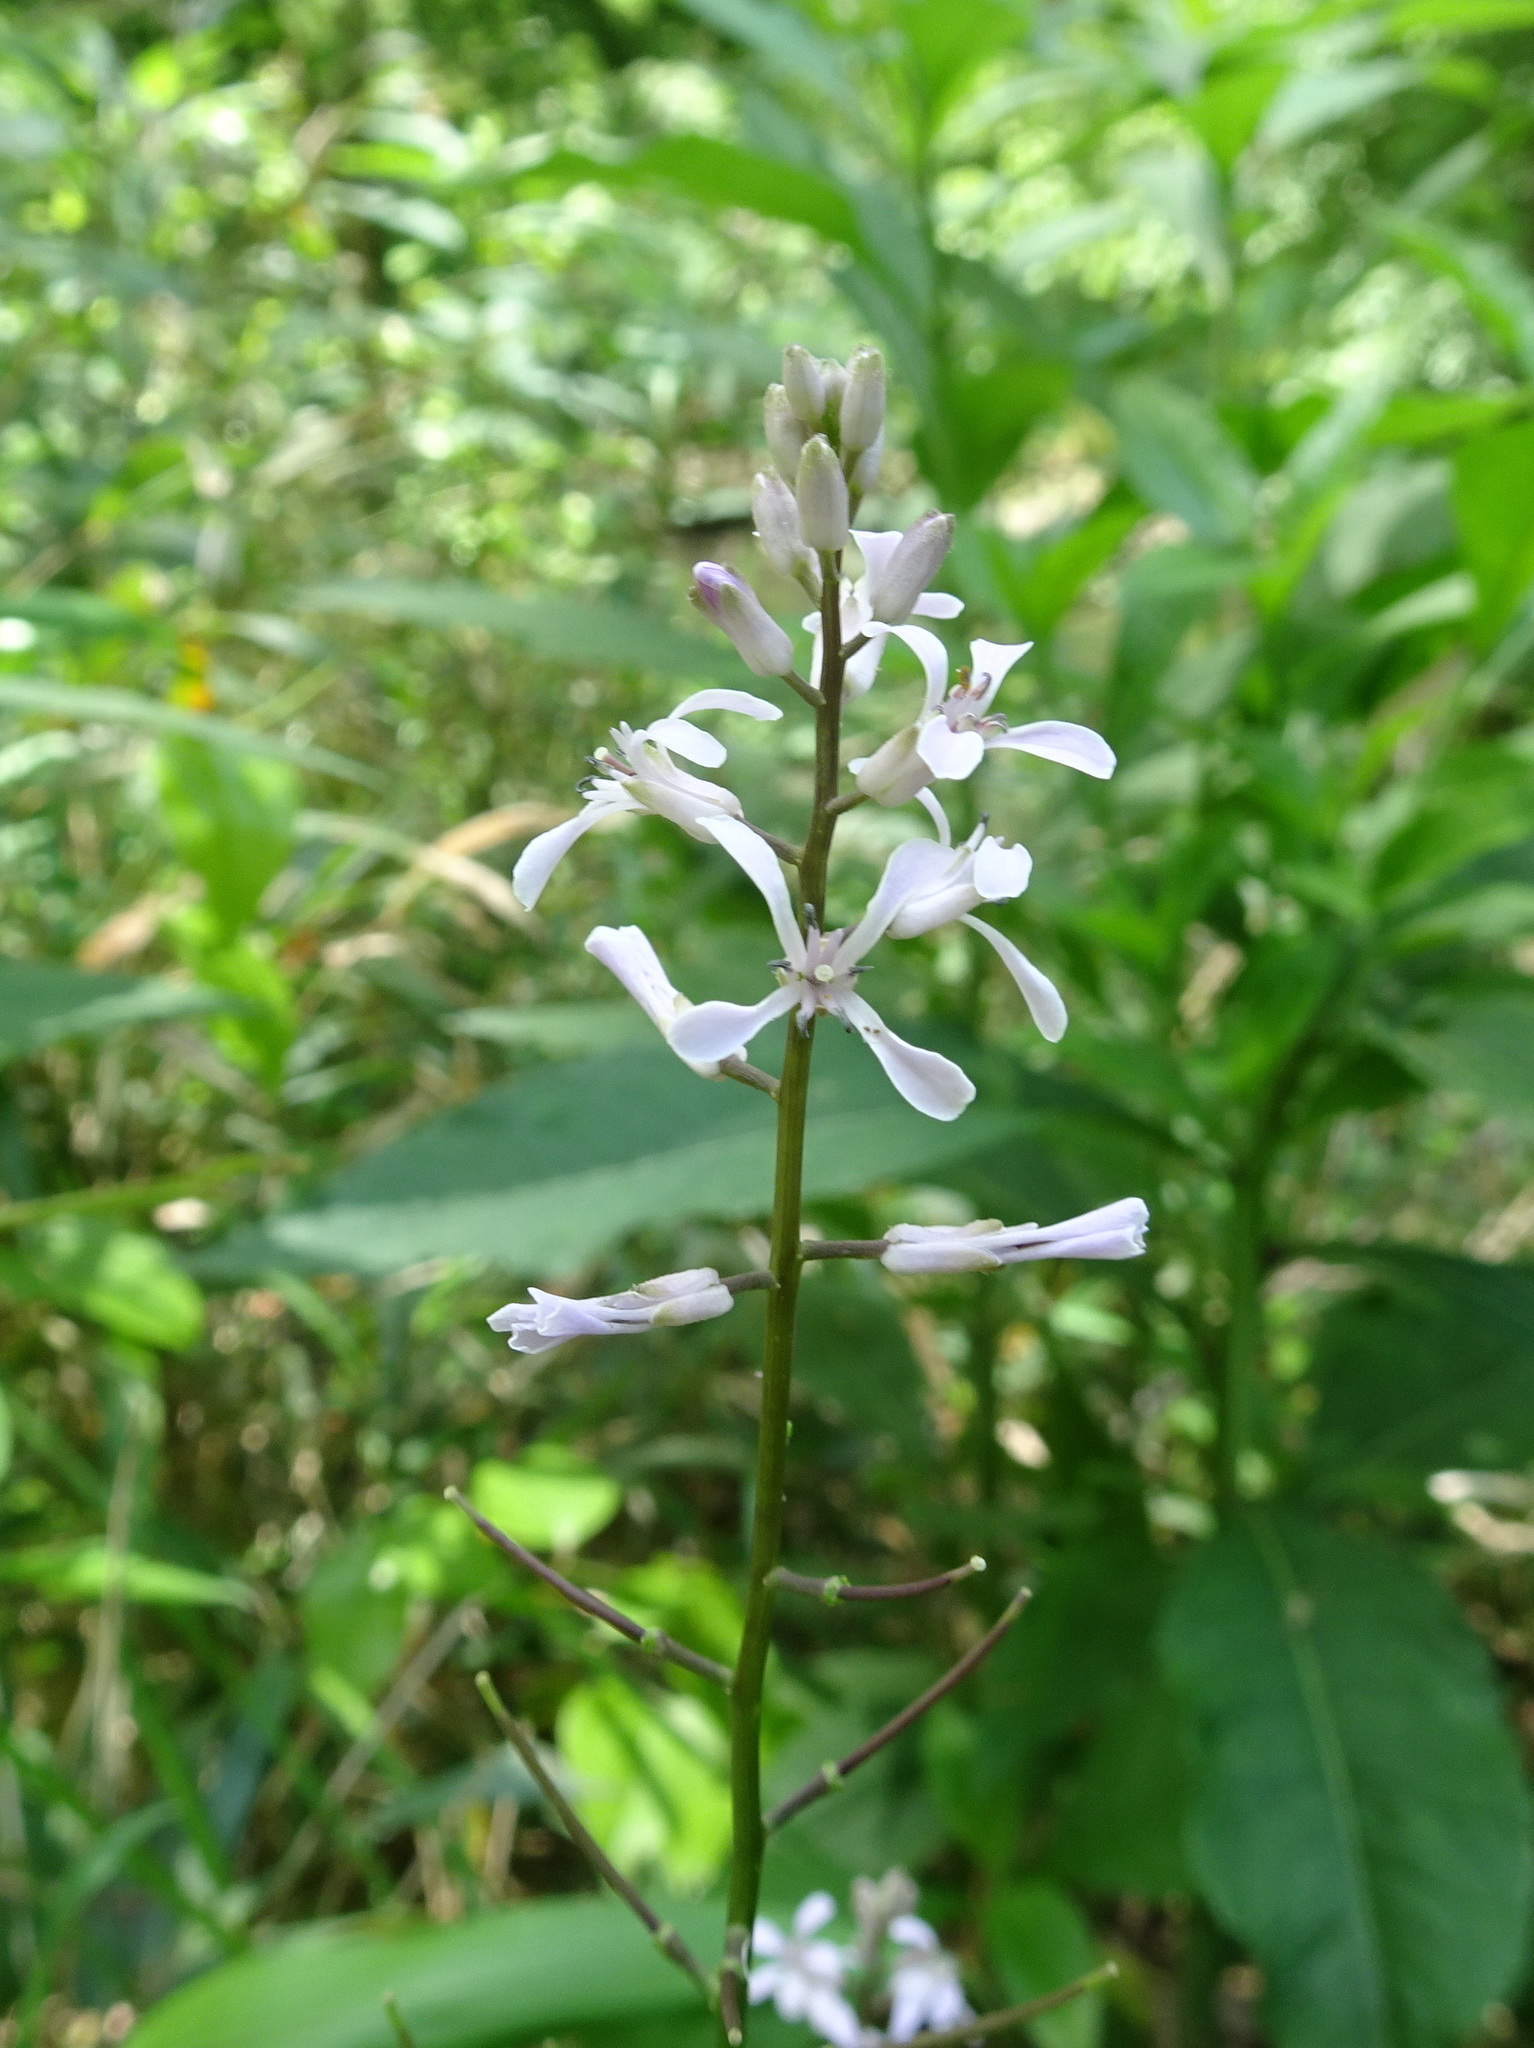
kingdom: Plantae
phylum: Tracheophyta
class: Magnoliopsida
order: Brassicales
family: Brassicaceae
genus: Iodanthus
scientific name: Iodanthus pinnatifidus
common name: Violet rocket
